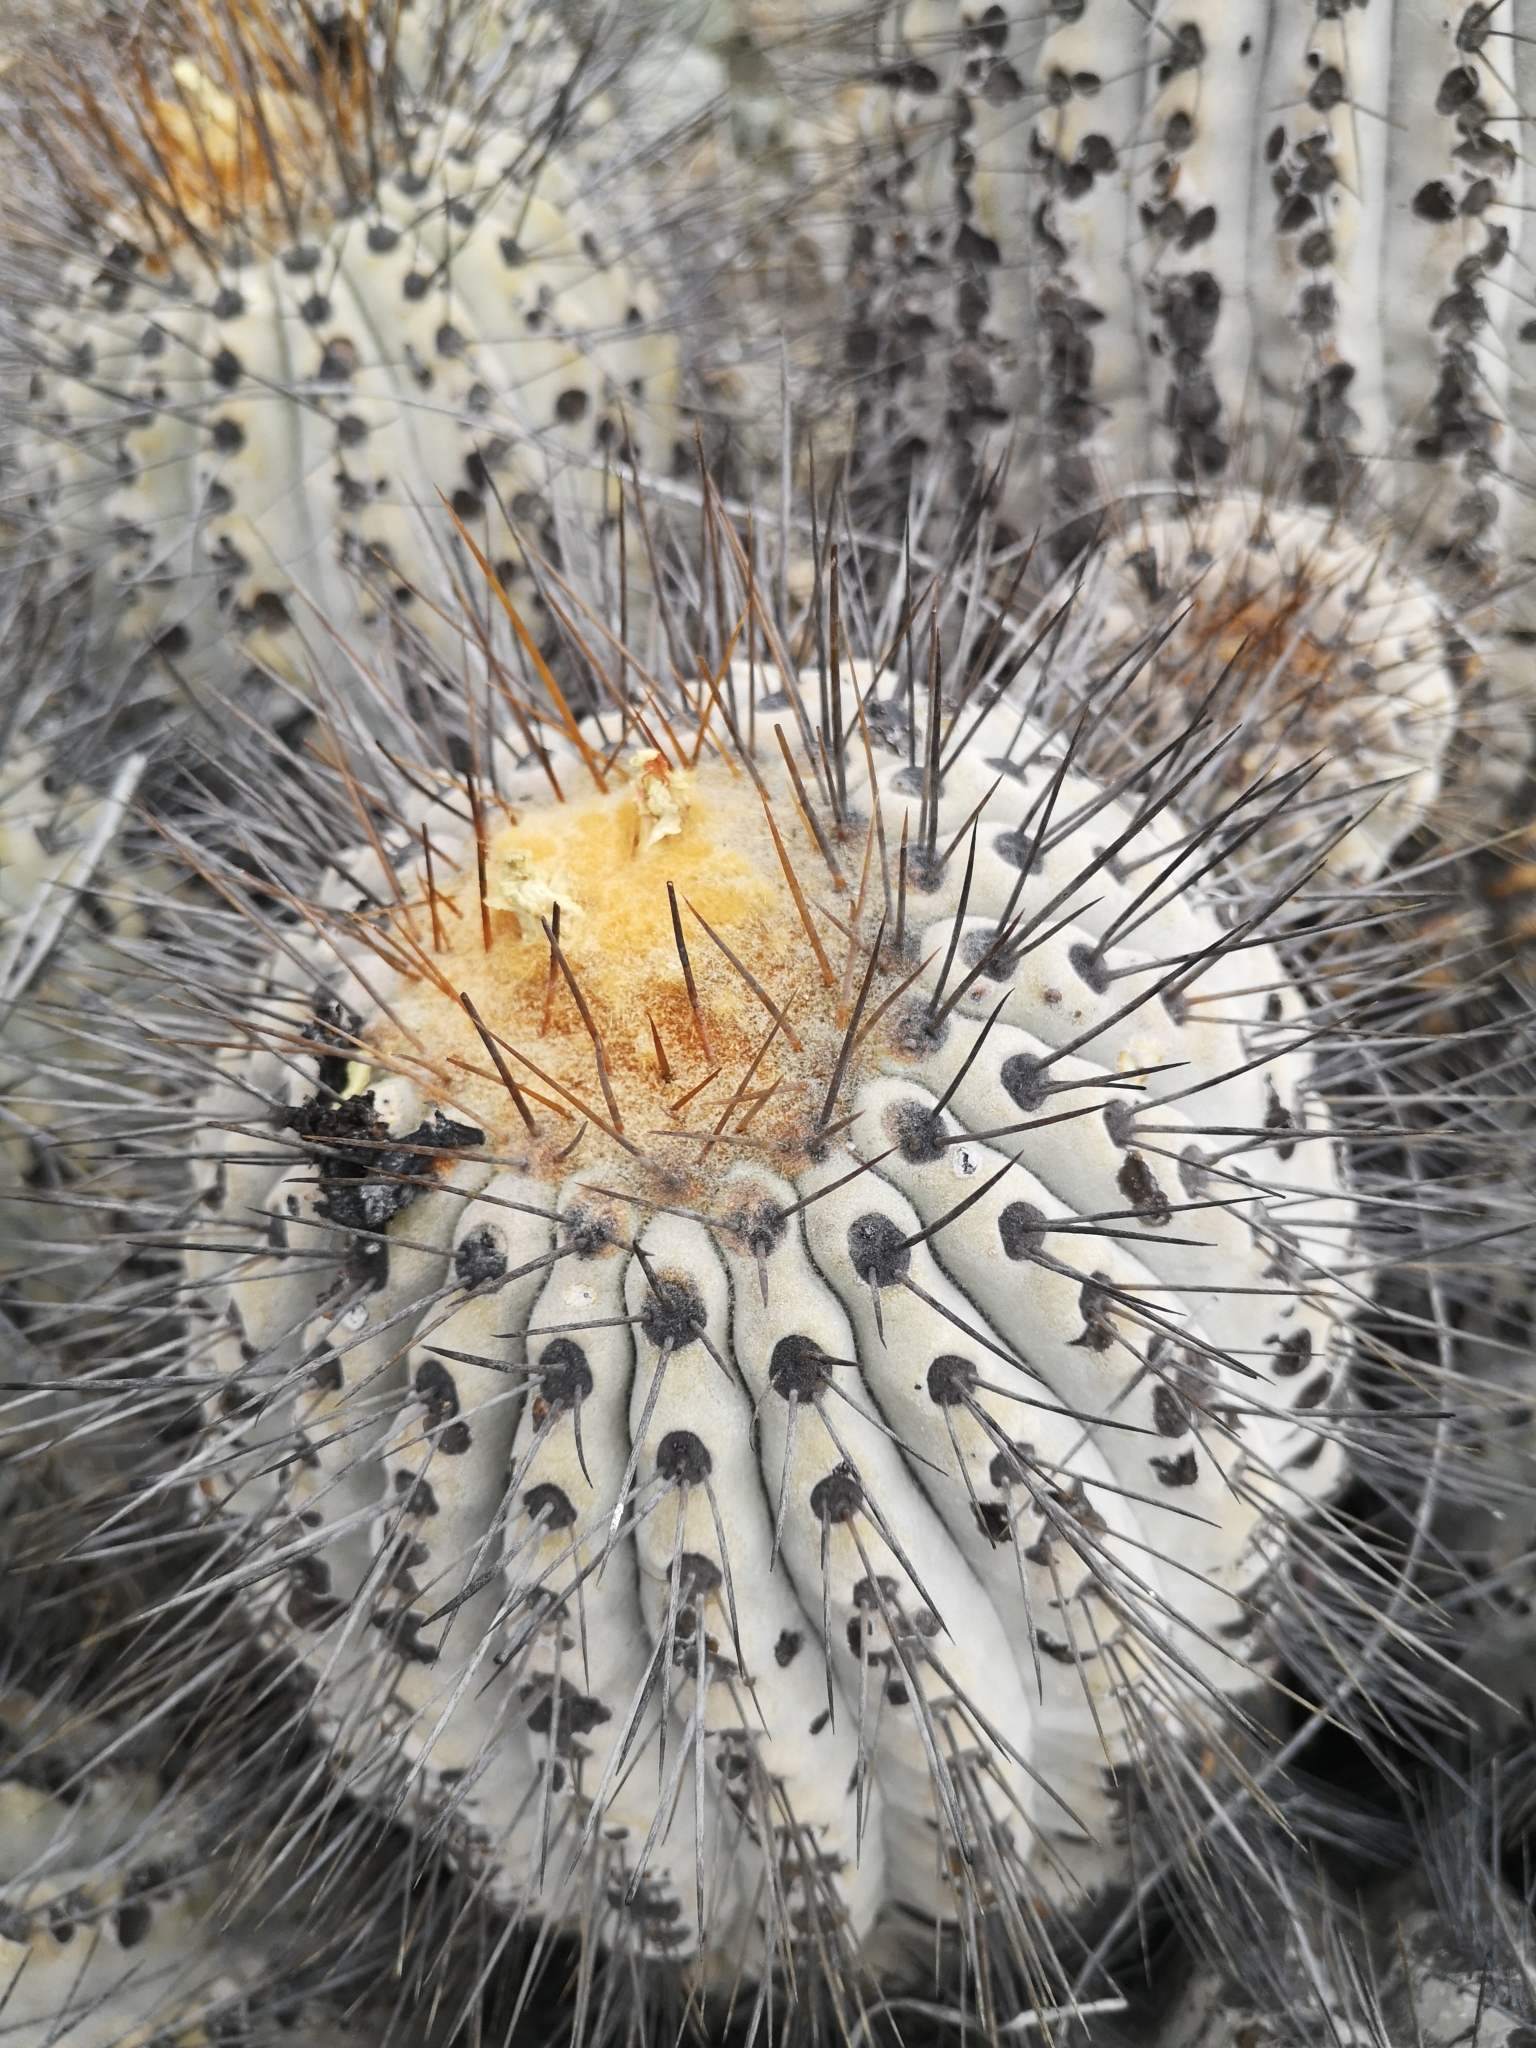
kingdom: Plantae
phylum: Tracheophyta
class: Magnoliopsida
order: Caryophyllales
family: Cactaceae
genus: Copiapoa
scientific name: Copiapoa gigantea
